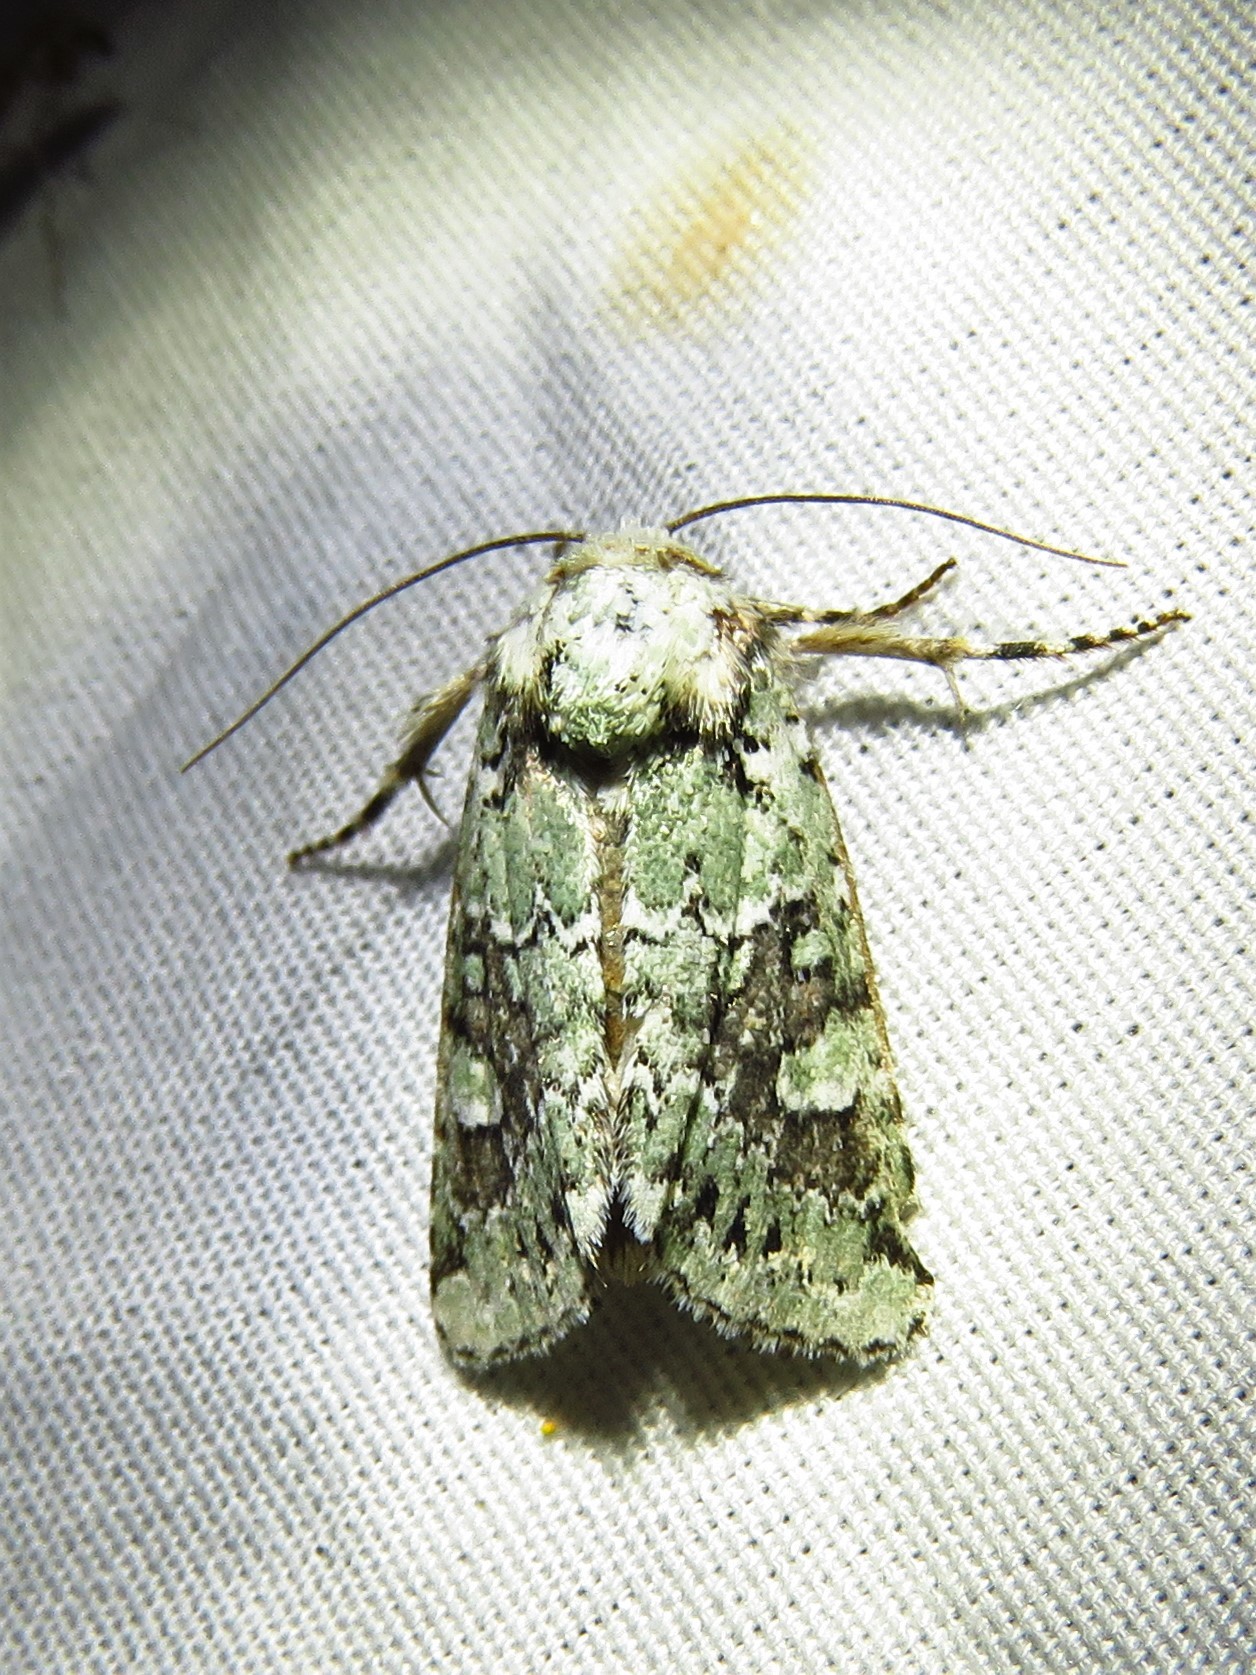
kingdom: Animalia
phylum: Arthropoda
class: Insecta
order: Lepidoptera
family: Noctuidae
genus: Lacinipolia
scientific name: Lacinipolia laudabilis
